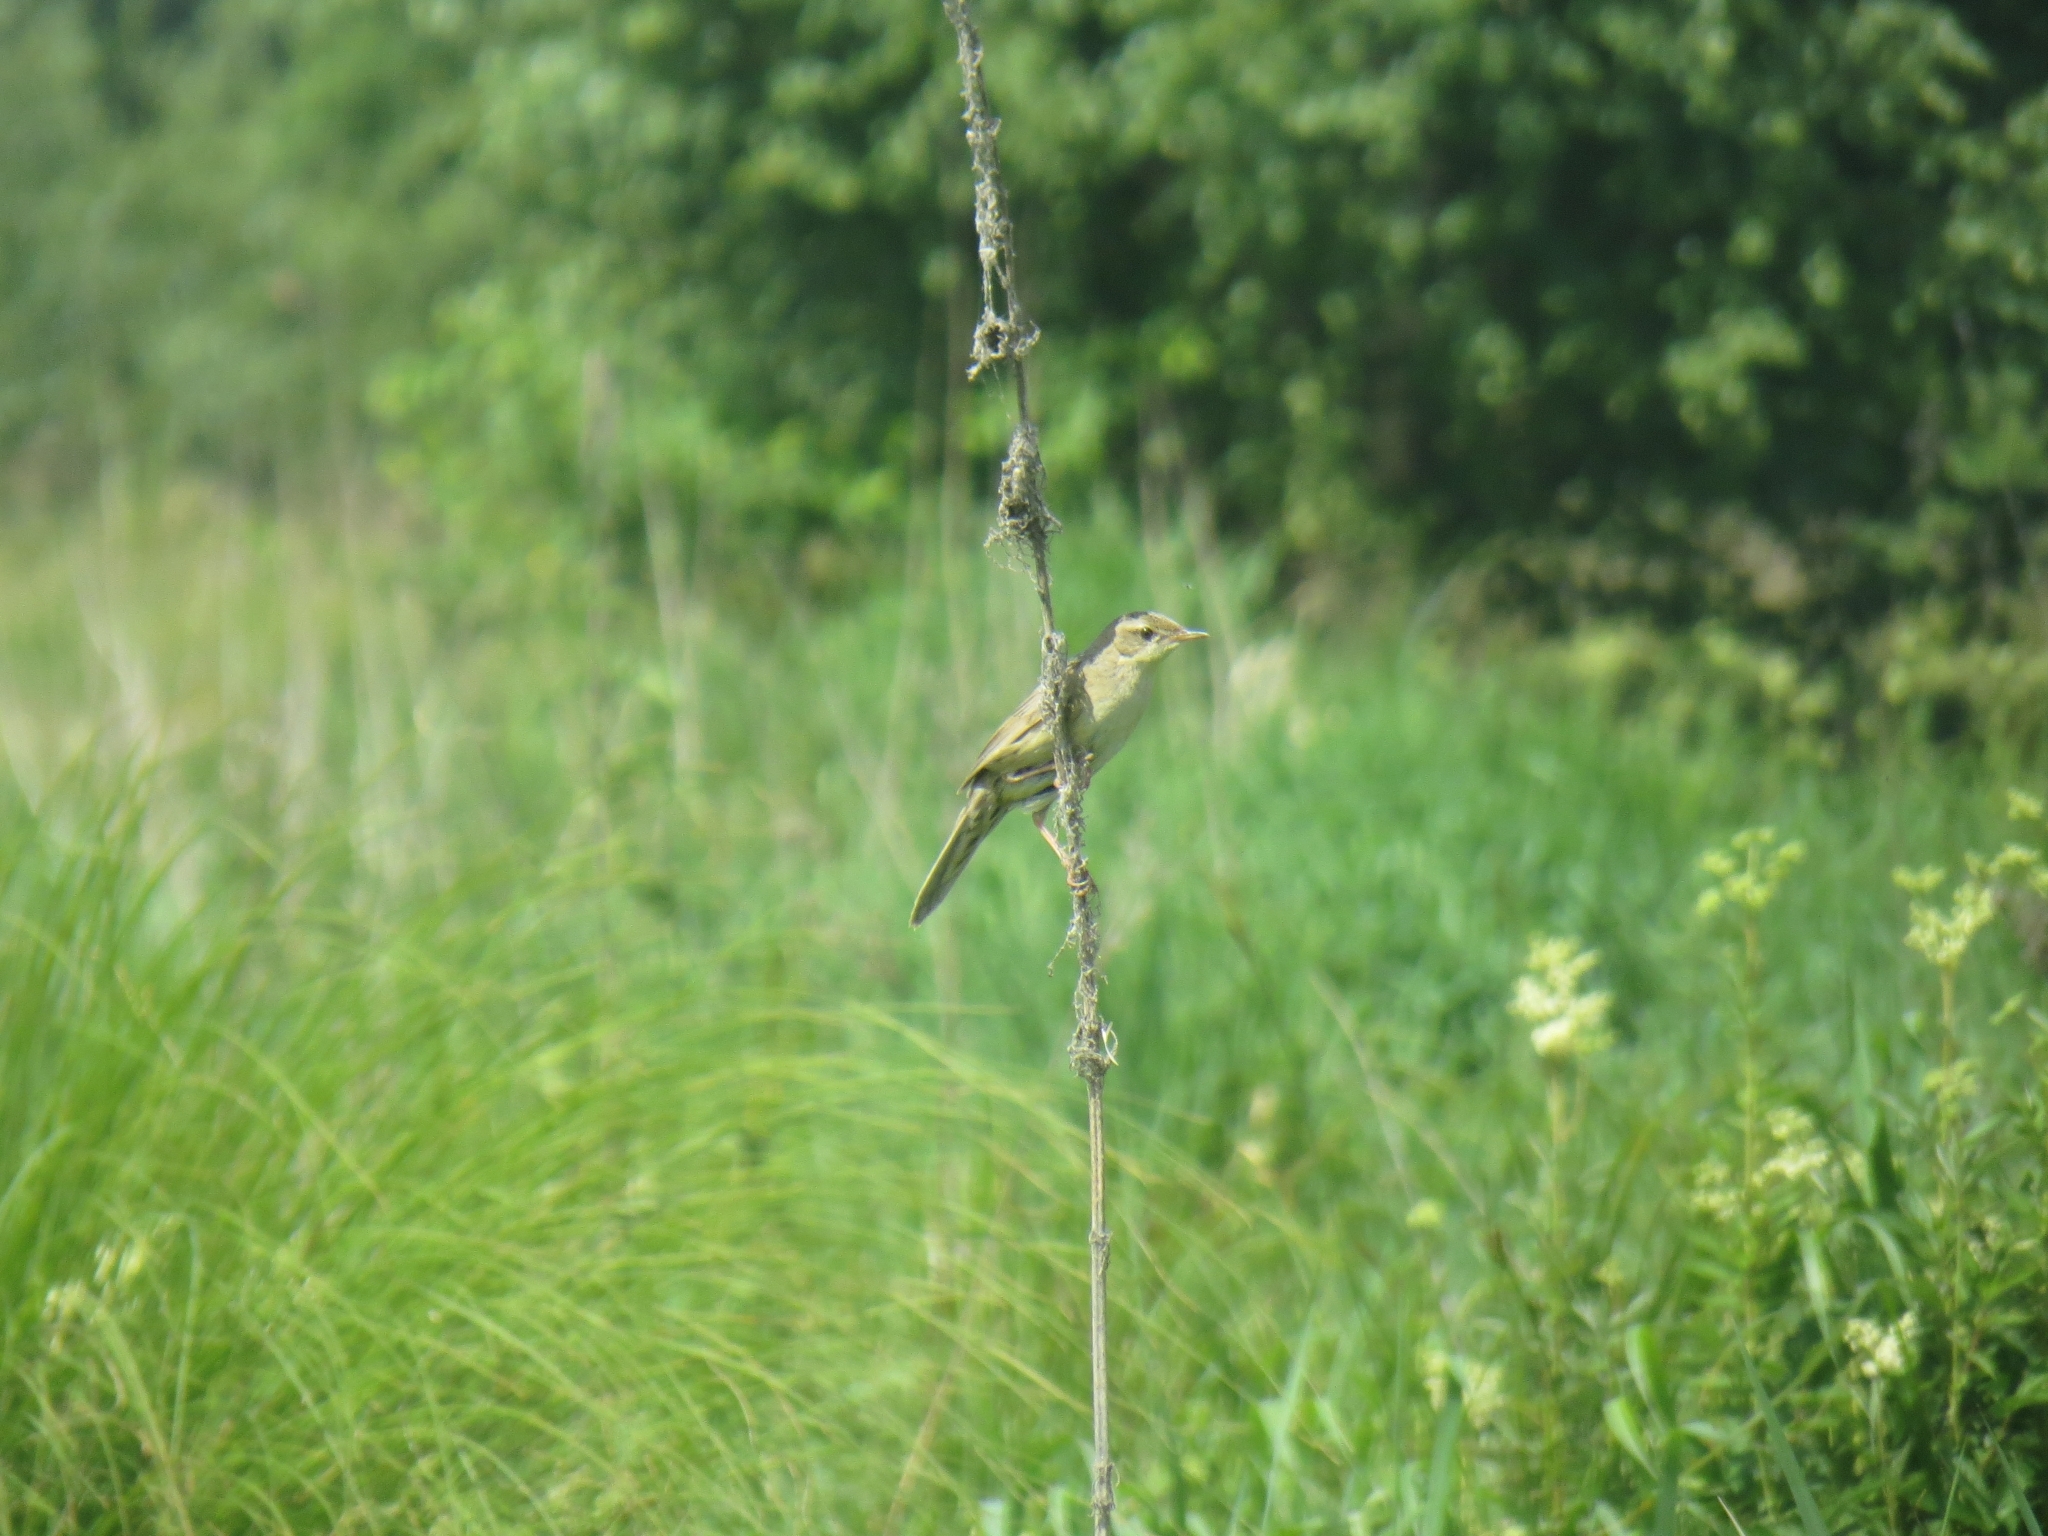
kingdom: Animalia
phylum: Chordata
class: Aves
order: Passeriformes
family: Locustellidae
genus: Locustella
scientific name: Locustella naevia
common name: Common grasshopper warbler
